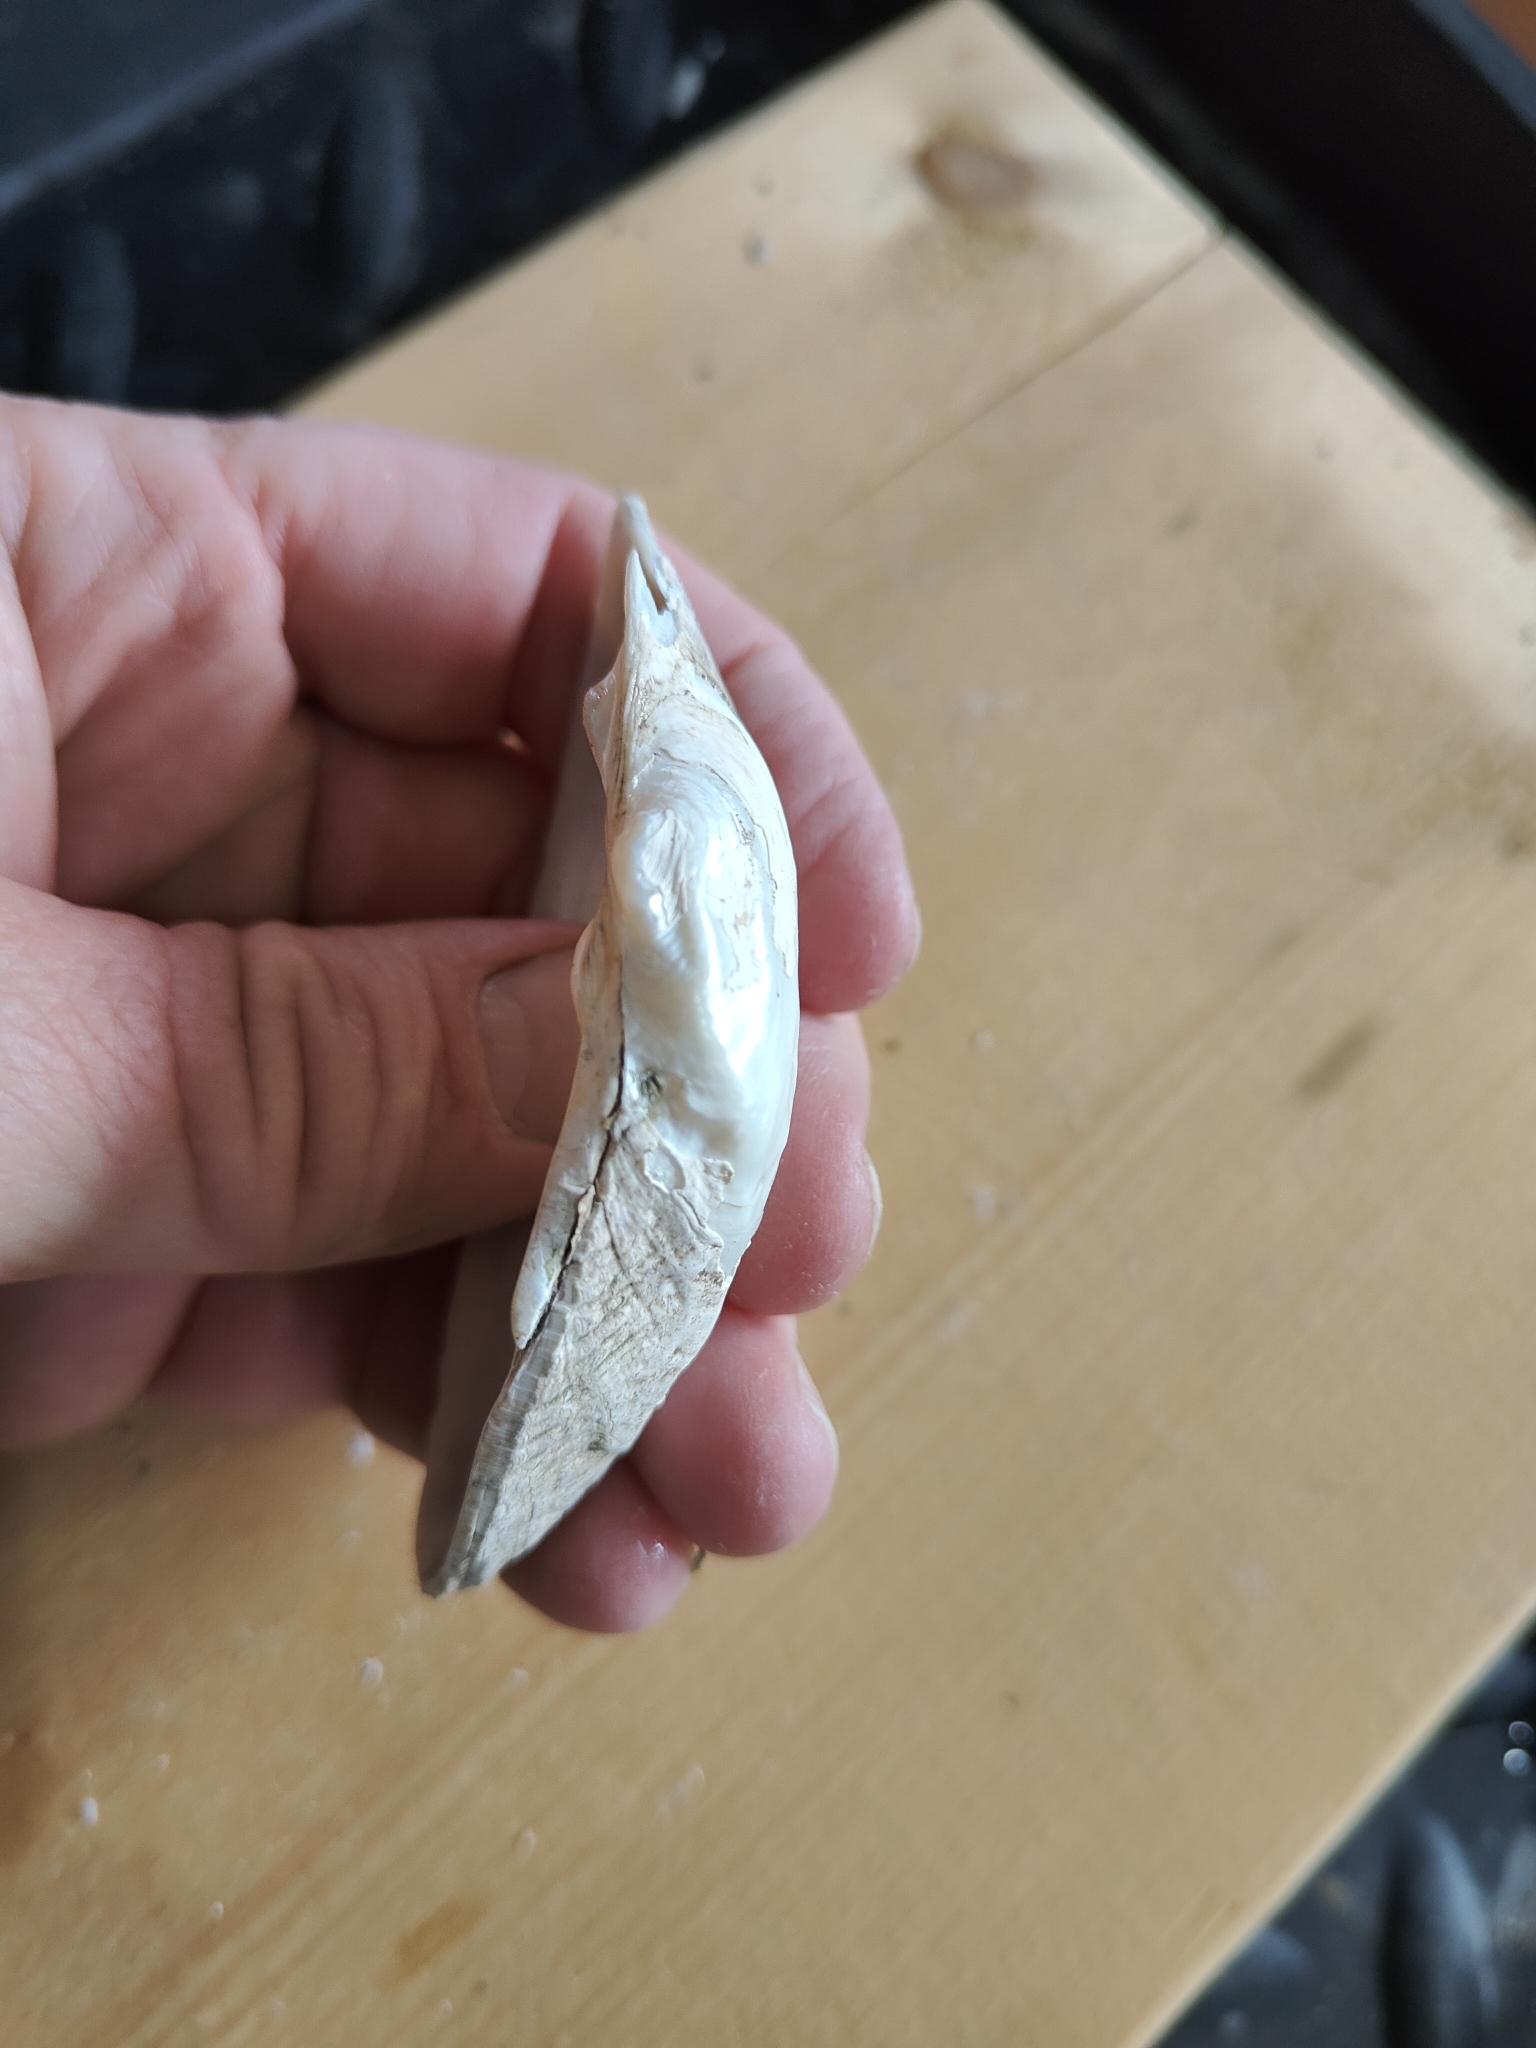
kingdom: Animalia
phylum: Mollusca
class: Bivalvia
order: Unionida
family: Unionidae
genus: Alasmidonta
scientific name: Alasmidonta marginata
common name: Elktoe
